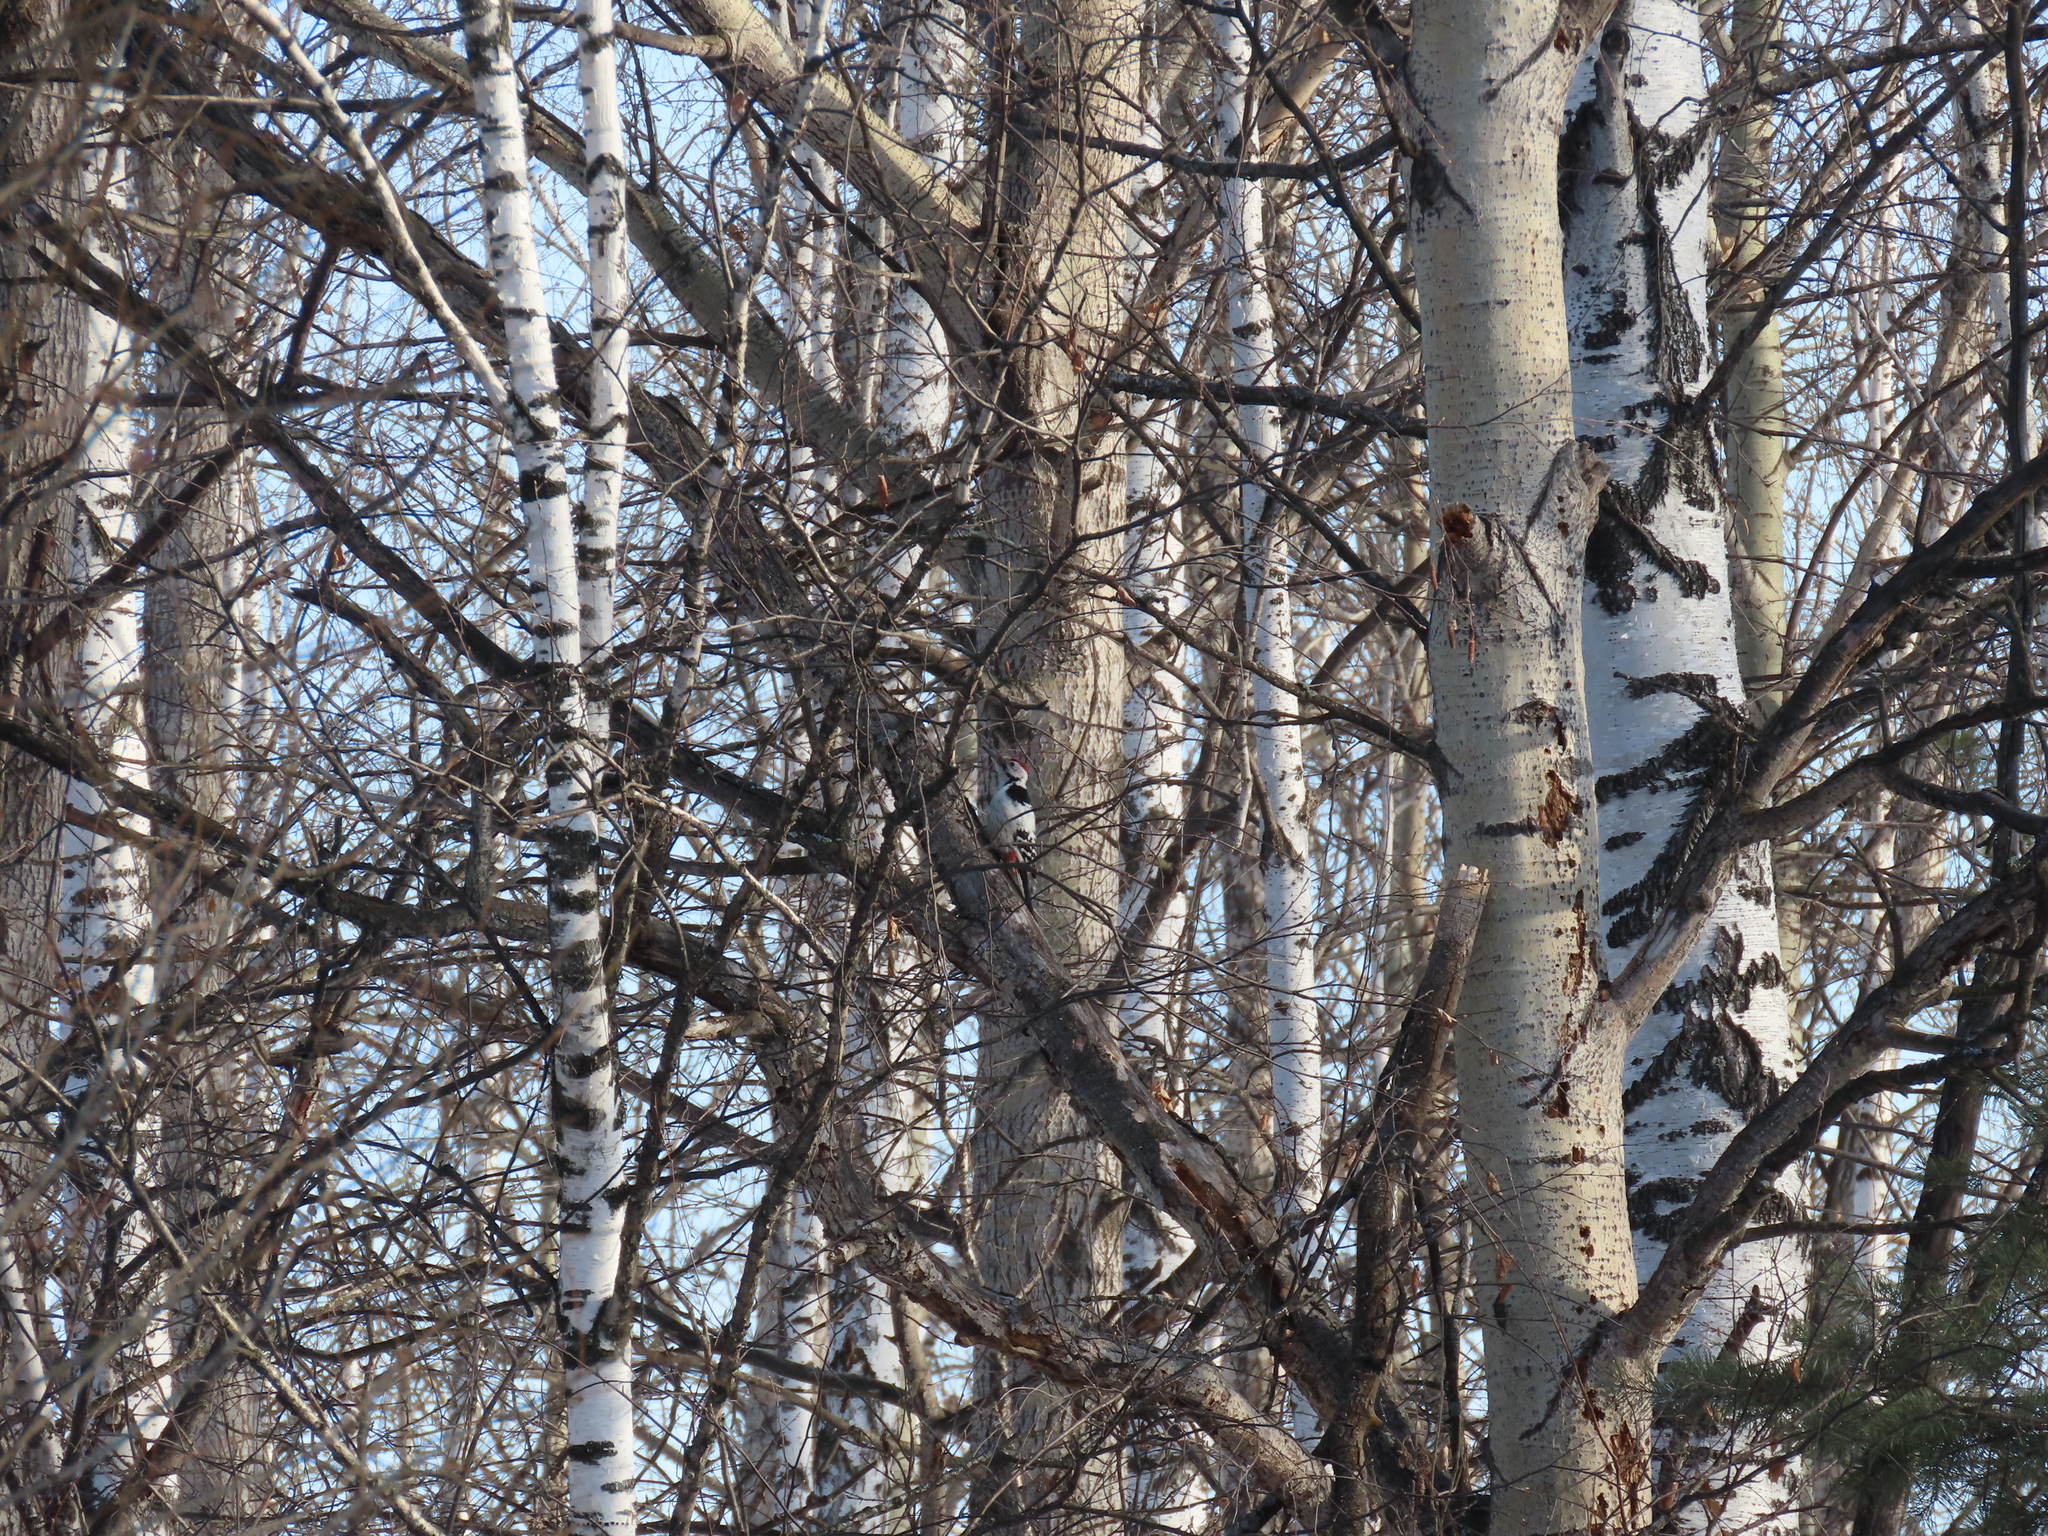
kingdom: Animalia
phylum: Chordata
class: Aves
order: Piciformes
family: Picidae
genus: Dendrocopos
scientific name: Dendrocopos leucotos
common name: White-backed woodpecker
